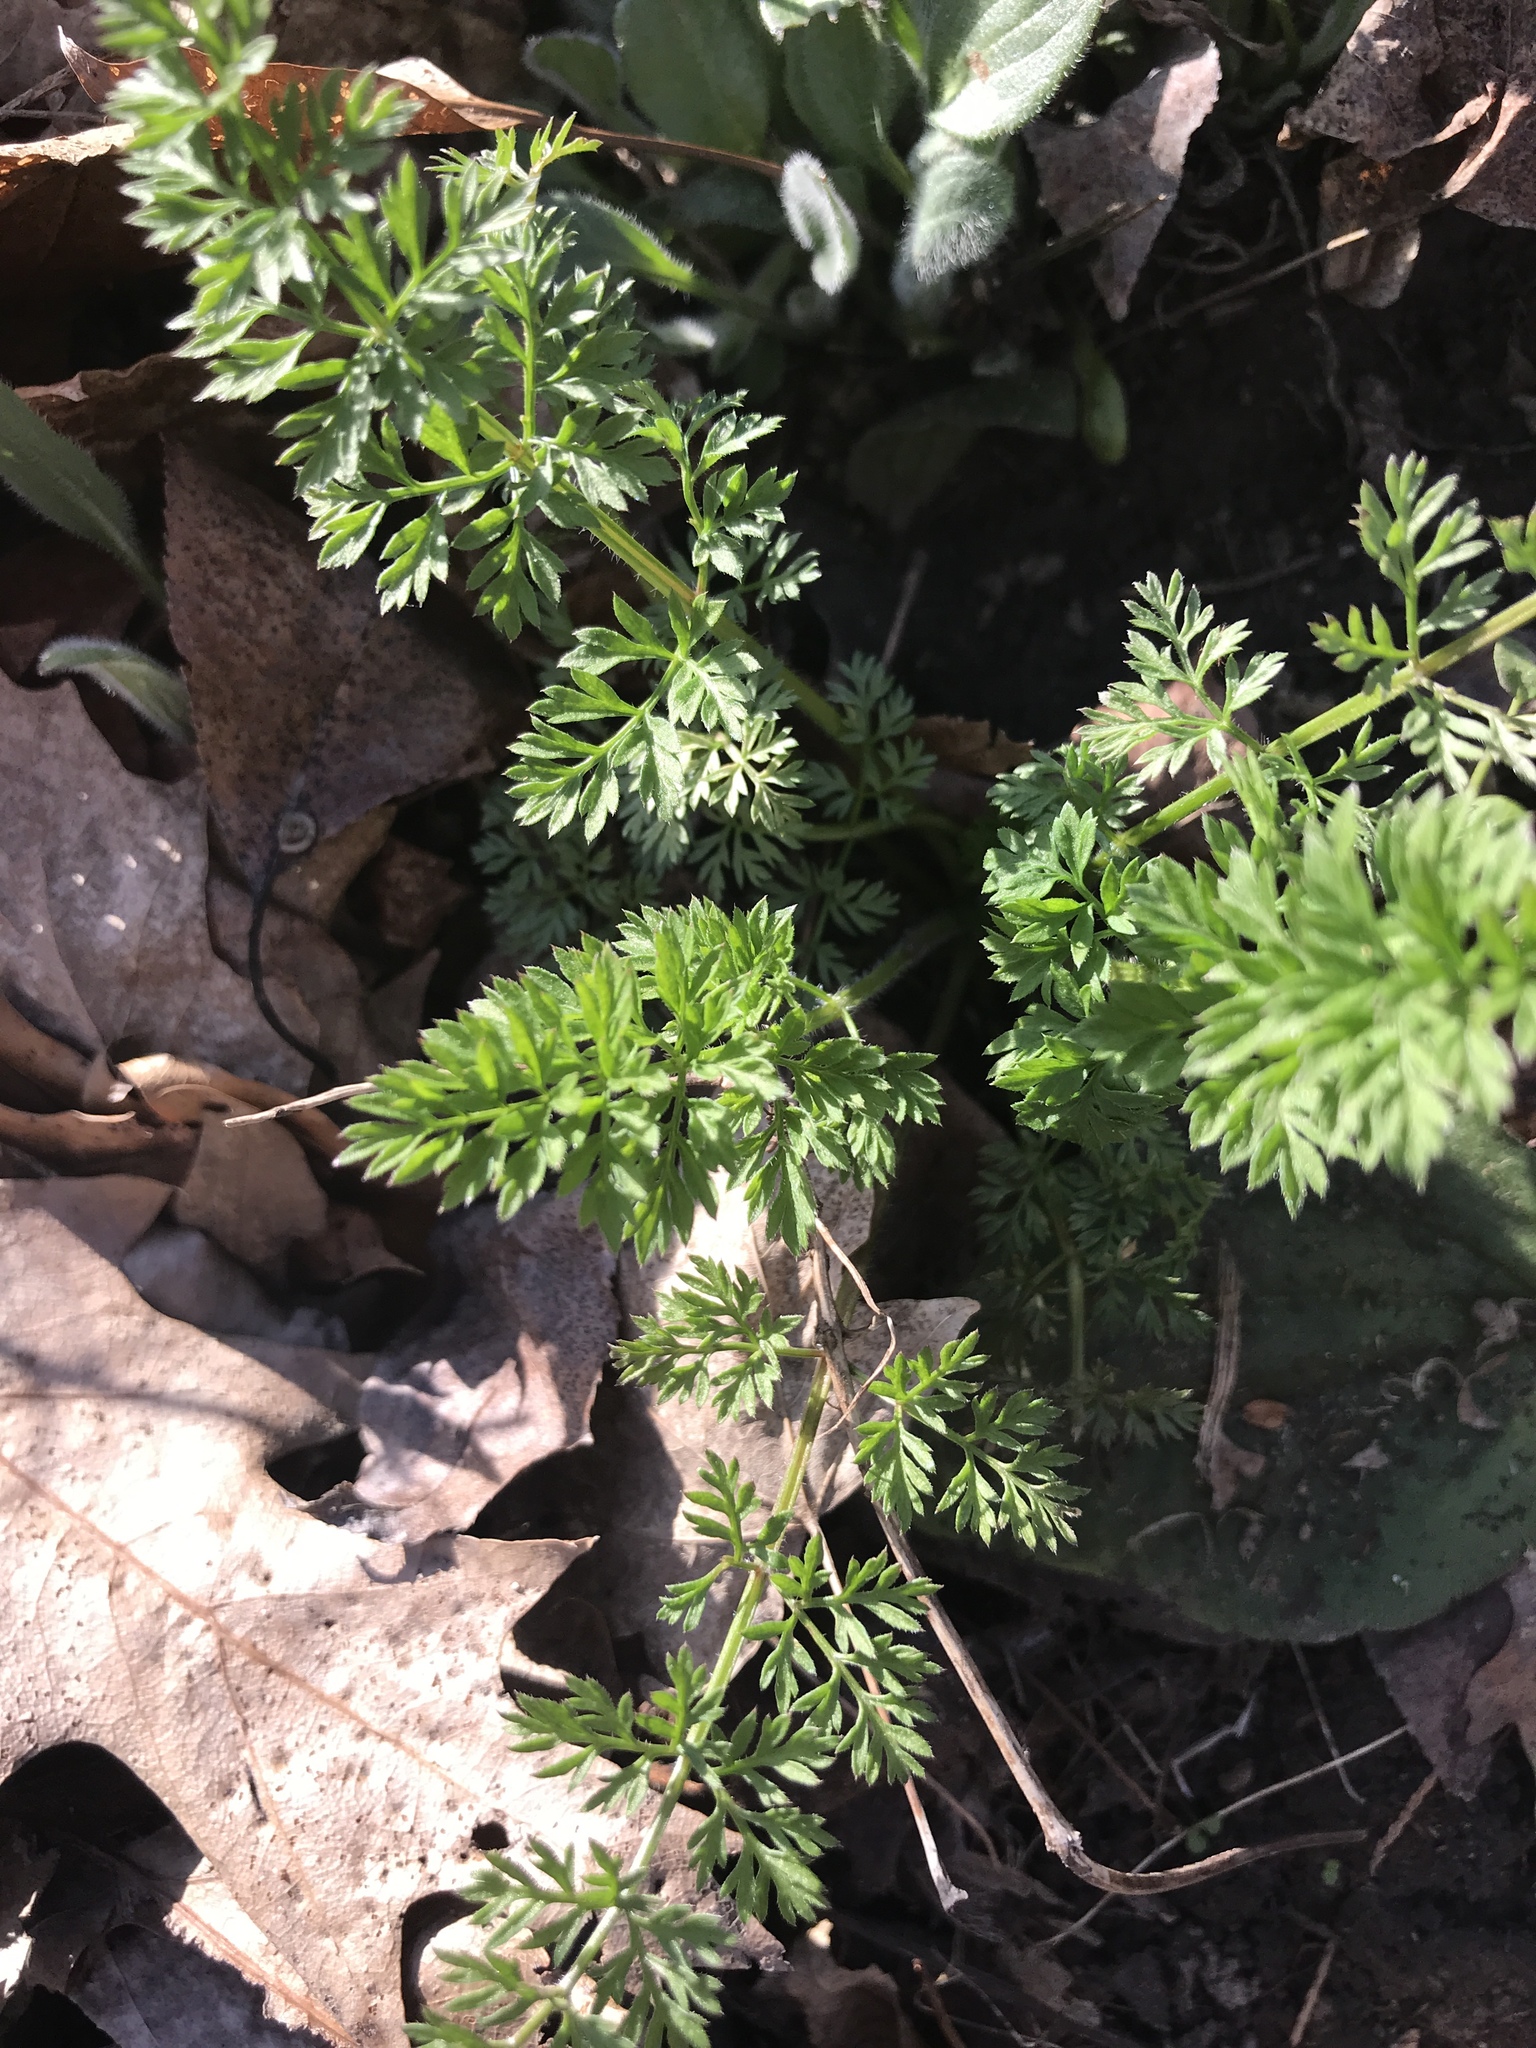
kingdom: Plantae
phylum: Tracheophyta
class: Magnoliopsida
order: Apiales
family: Apiaceae
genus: Daucus
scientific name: Daucus carota
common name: Wild carrot
